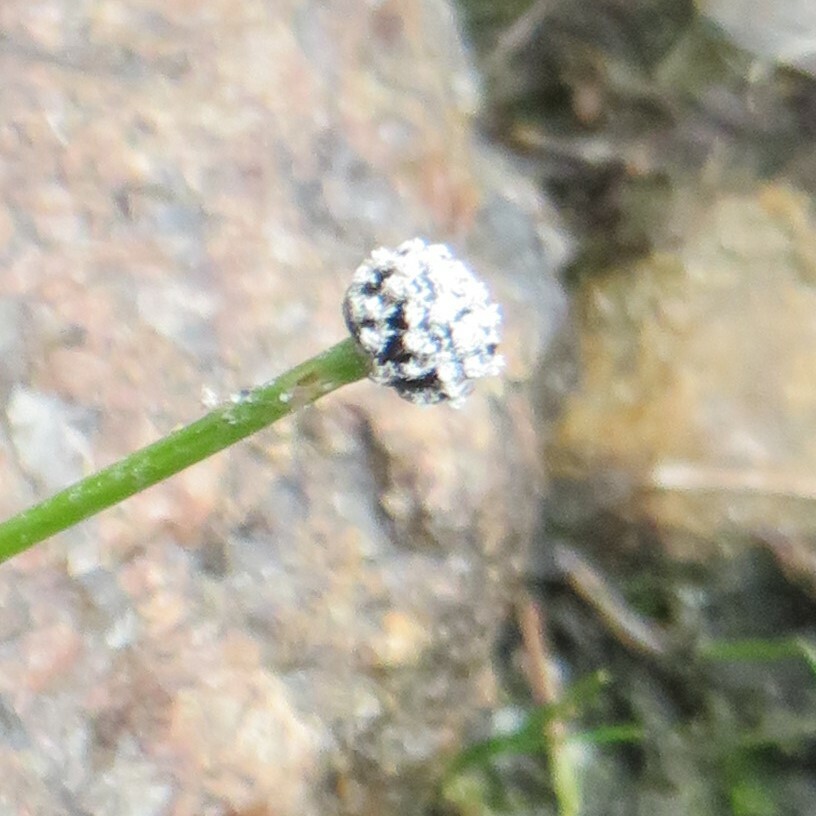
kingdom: Plantae
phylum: Tracheophyta
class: Liliopsida
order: Poales
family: Eriocaulaceae
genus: Eriocaulon
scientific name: Eriocaulon aquaticum
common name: Pipewort
